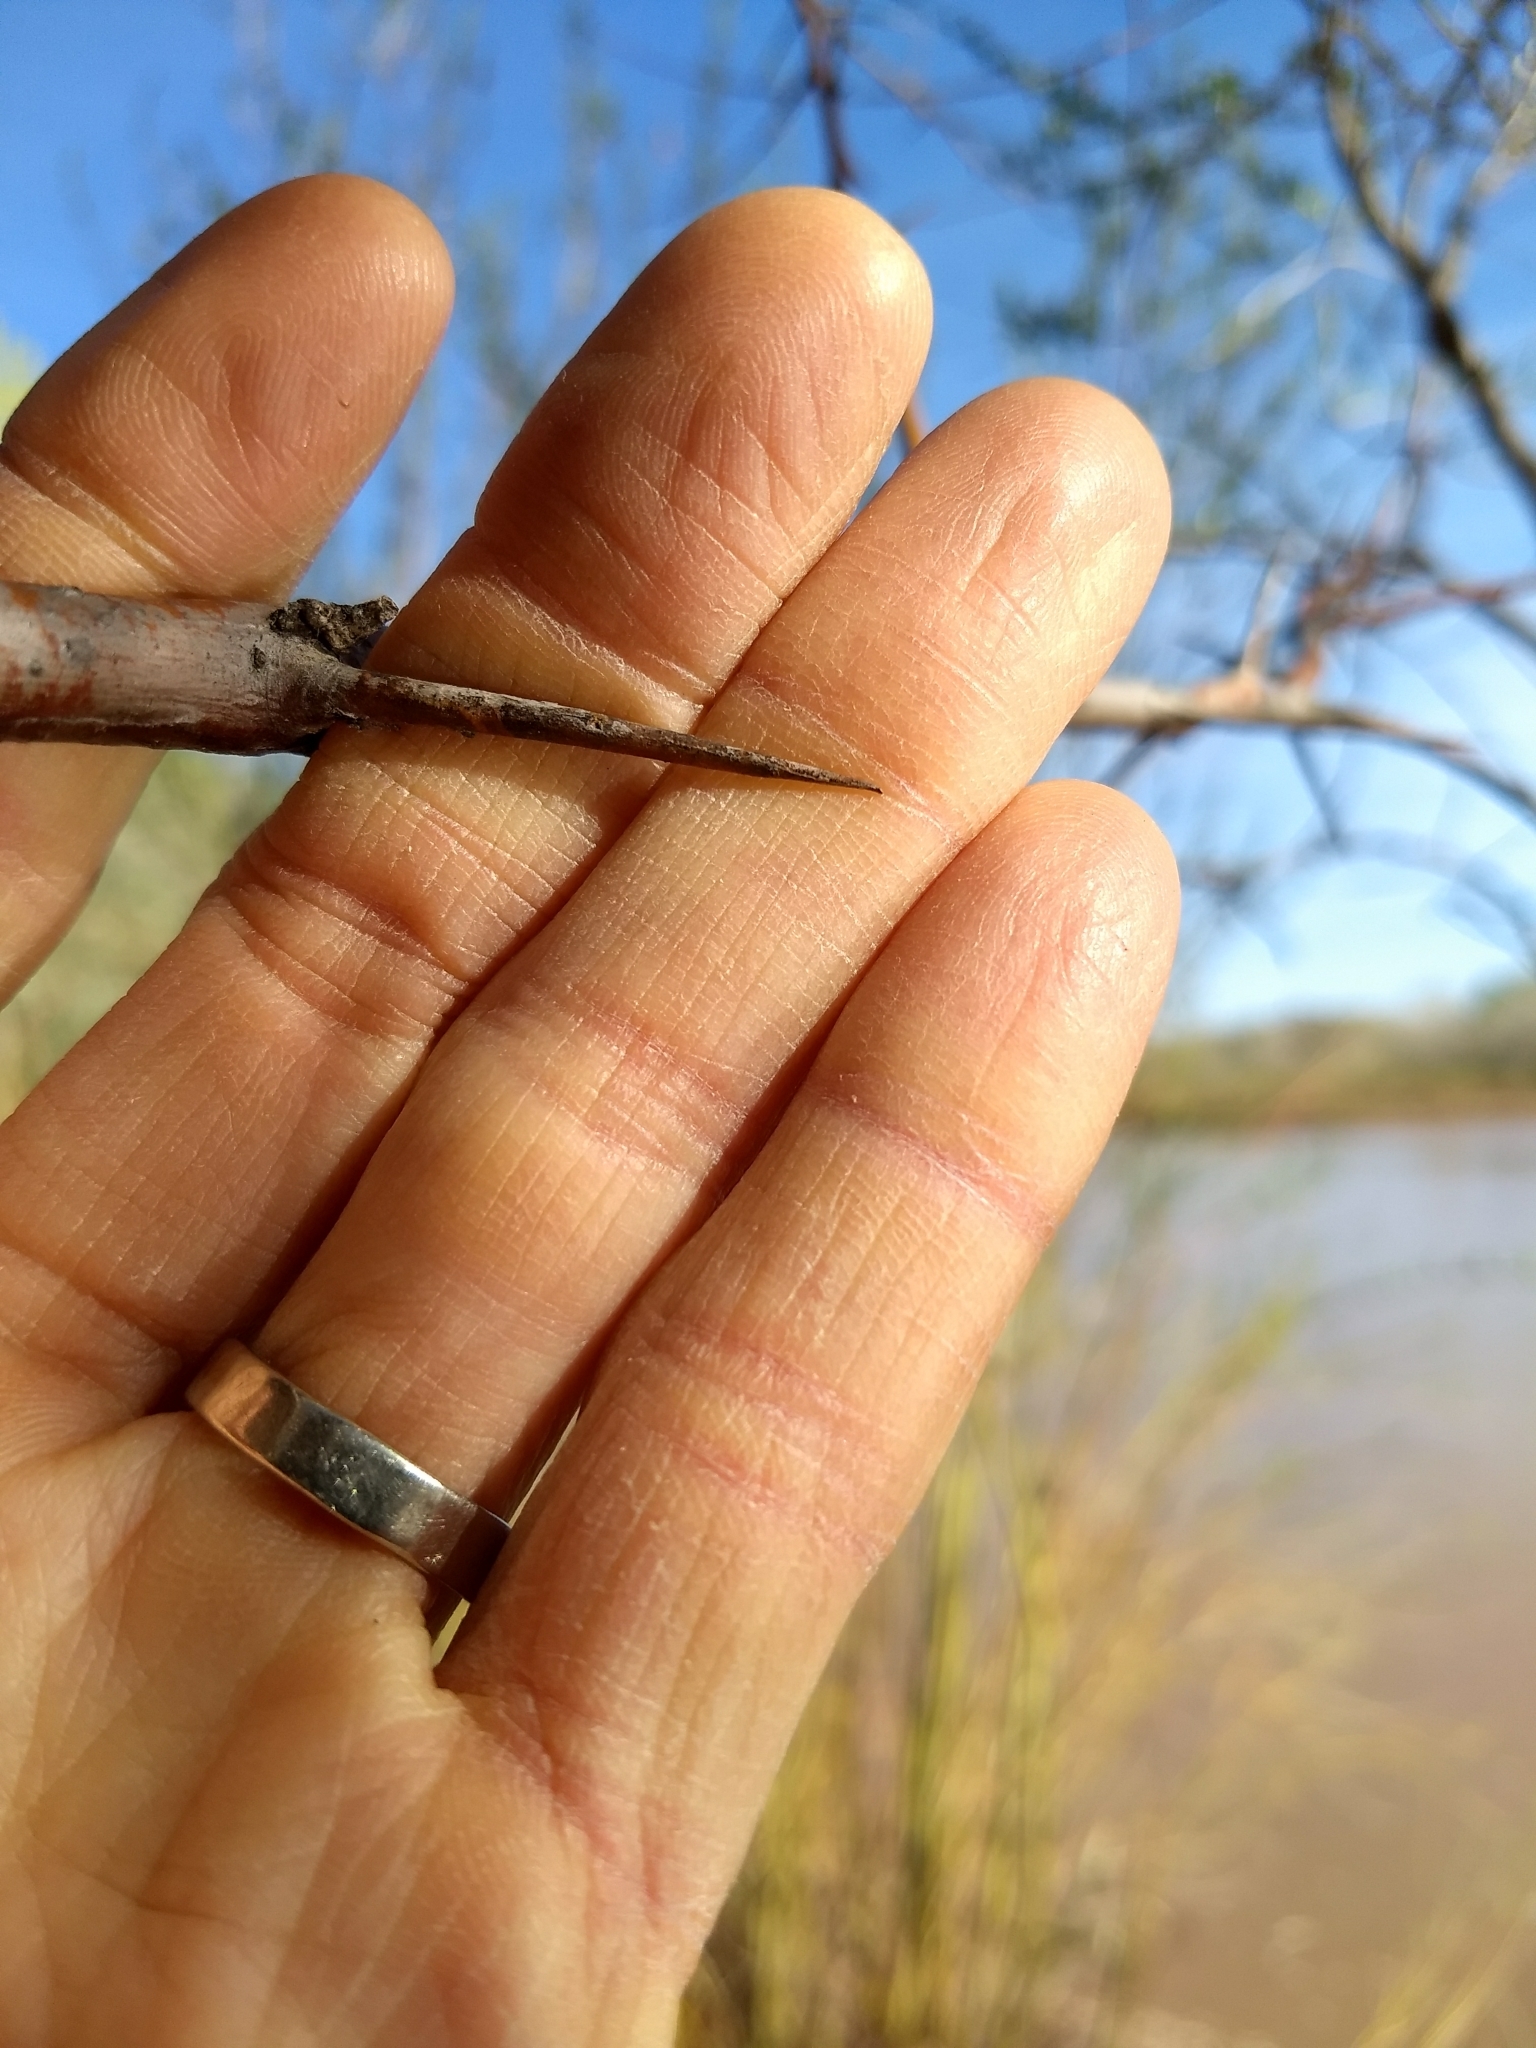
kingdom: Plantae
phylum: Tracheophyta
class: Magnoliopsida
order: Rosales
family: Elaeagnaceae
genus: Elaeagnus
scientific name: Elaeagnus angustifolia
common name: Russian olive
